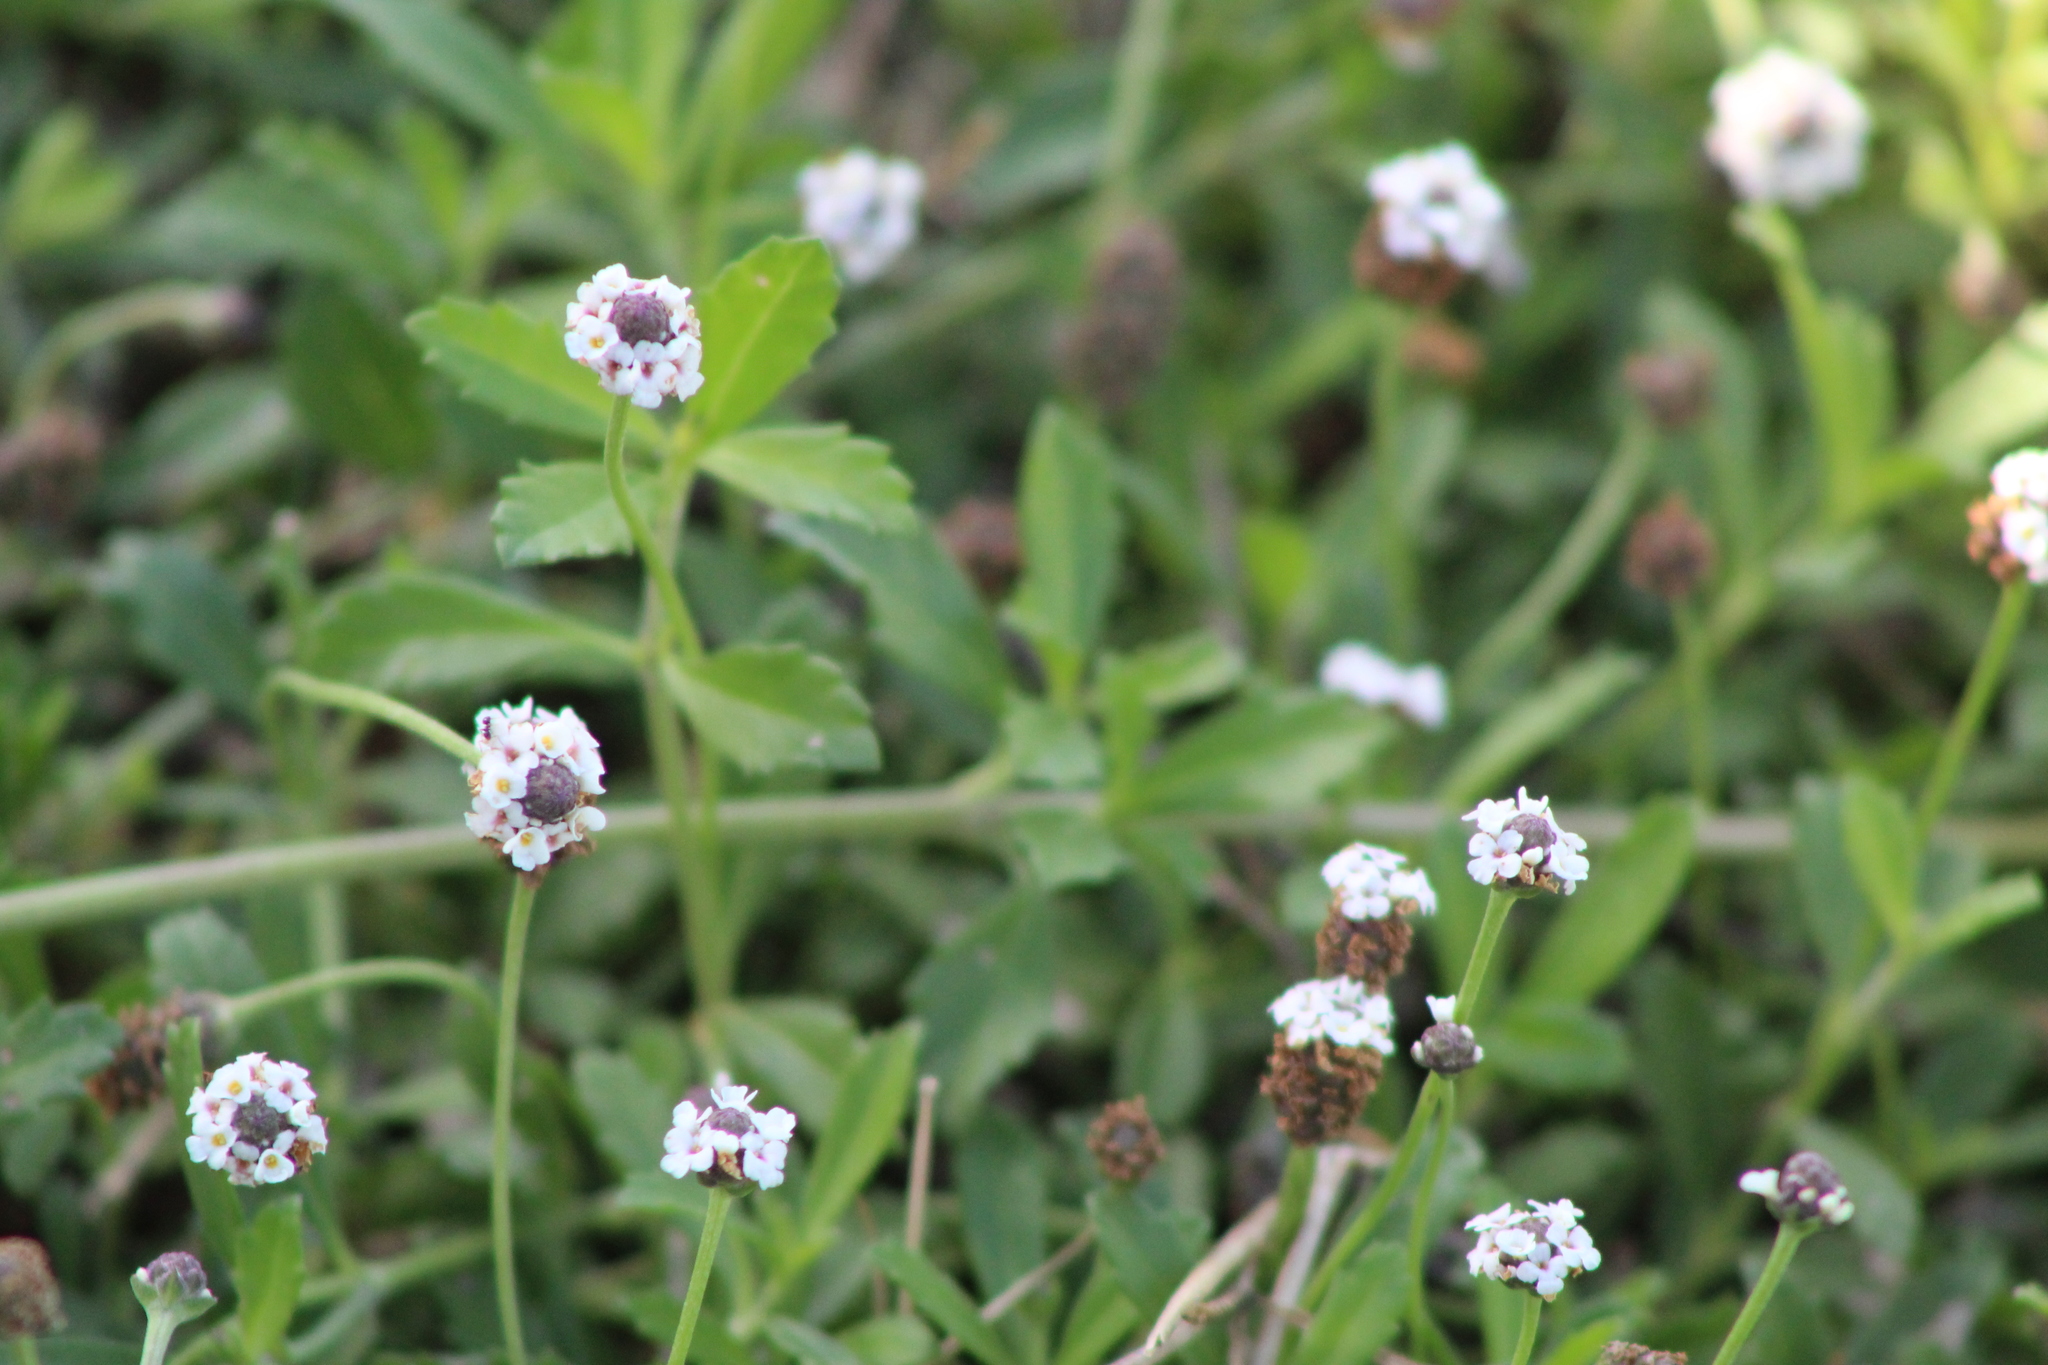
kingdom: Plantae
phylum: Tracheophyta
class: Magnoliopsida
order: Lamiales
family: Verbenaceae
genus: Phyla
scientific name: Phyla nodiflora
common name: Frogfruit
